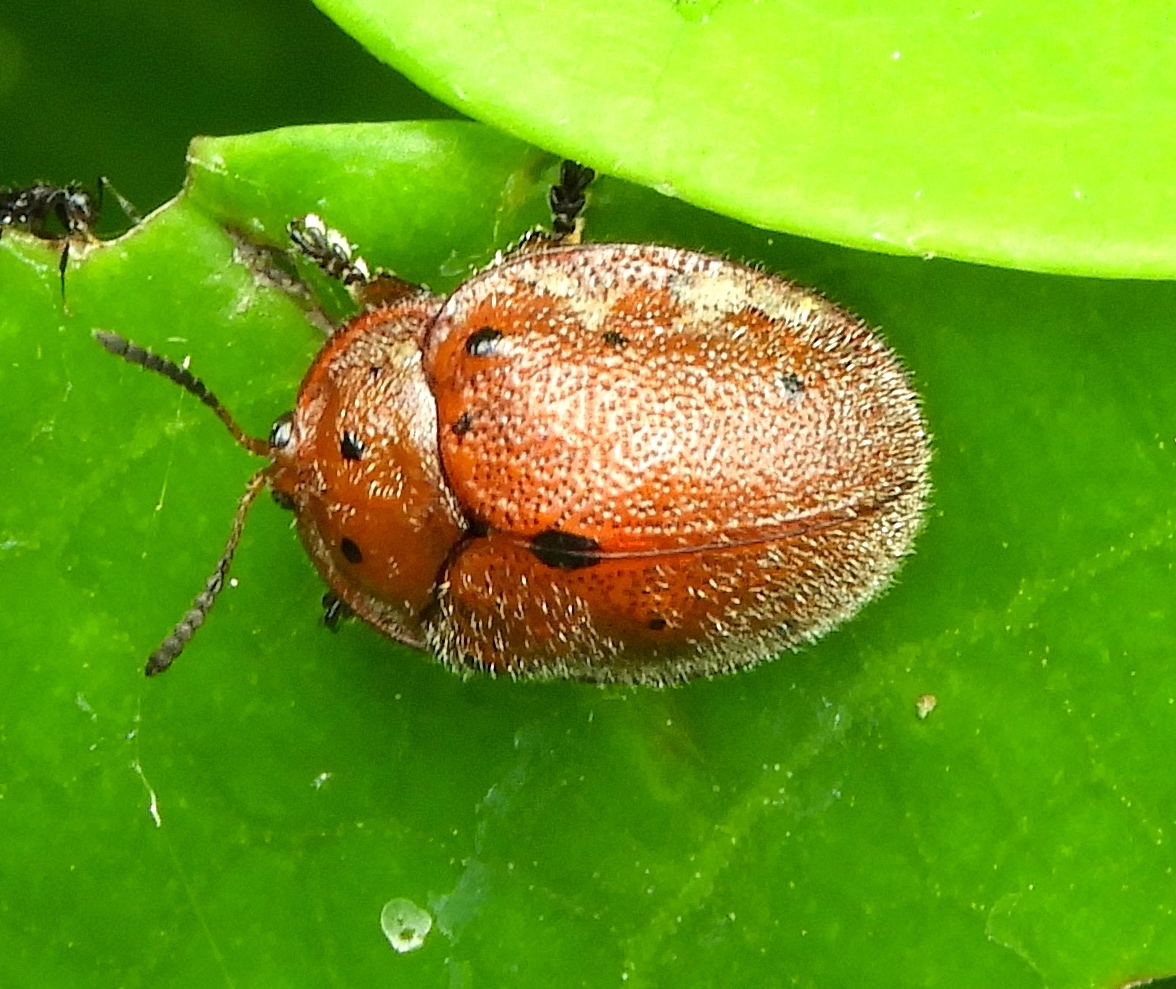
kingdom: Animalia
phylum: Arthropoda
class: Insecta
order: Coleoptera
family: Chrysomelidae
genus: Chelymorpha
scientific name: Chelymorpha
